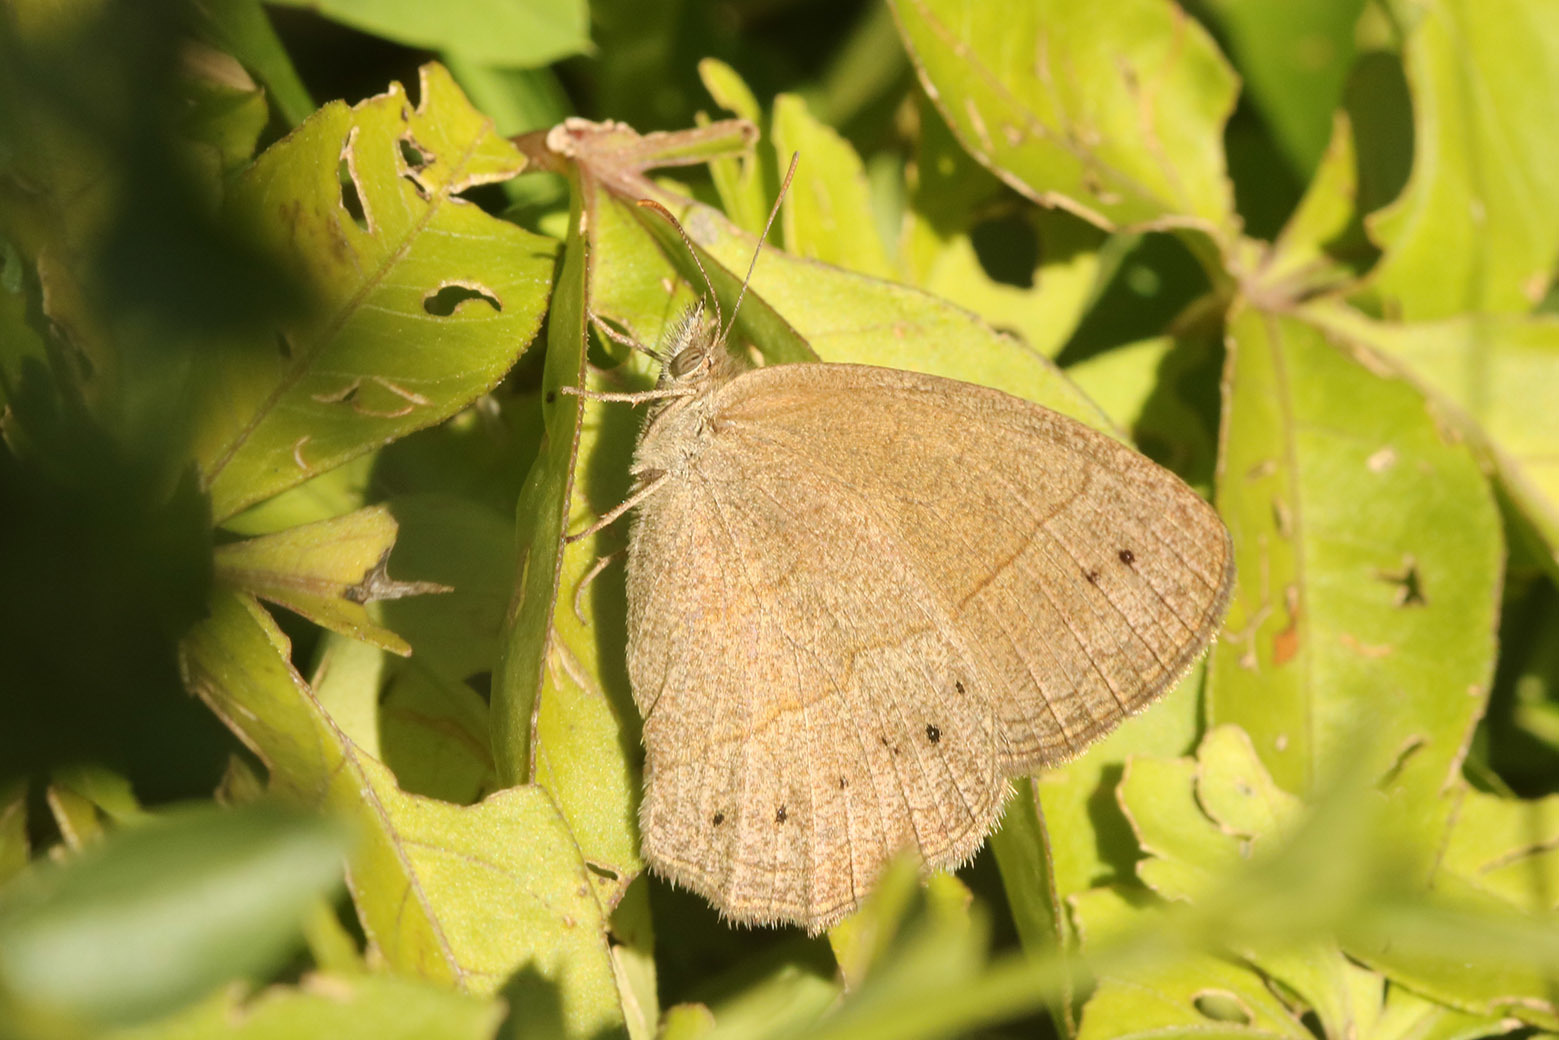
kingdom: Animalia
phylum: Arthropoda
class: Insecta
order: Lepidoptera
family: Nymphalidae
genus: Yphthimoides
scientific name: Yphthimoides celmis
